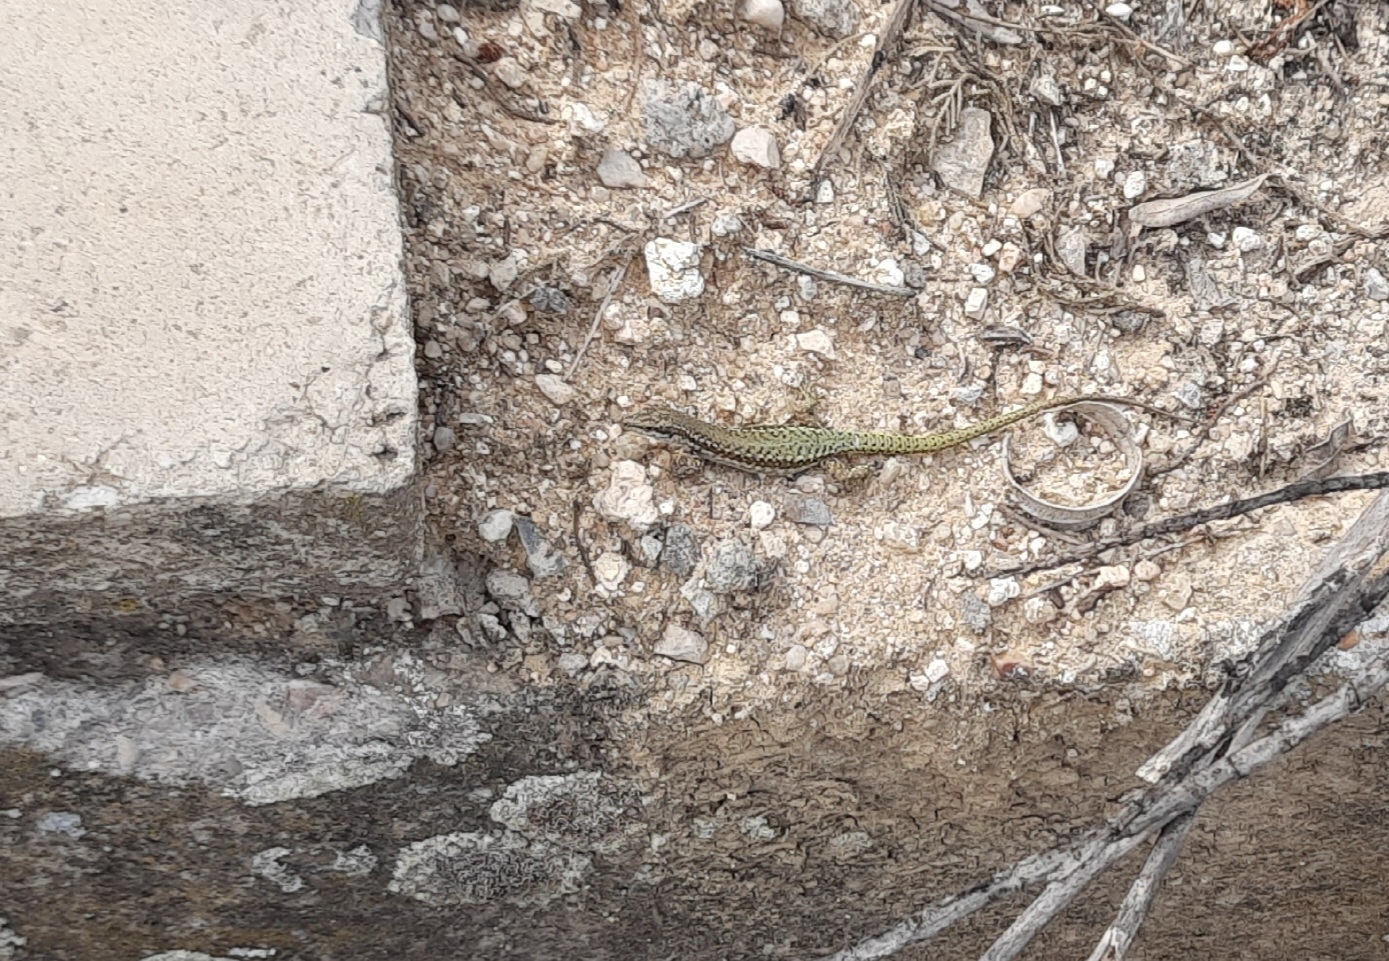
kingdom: Animalia
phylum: Chordata
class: Squamata
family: Lacertidae
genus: Podarcis
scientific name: Podarcis virescens
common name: Geniez’s wall lizard
